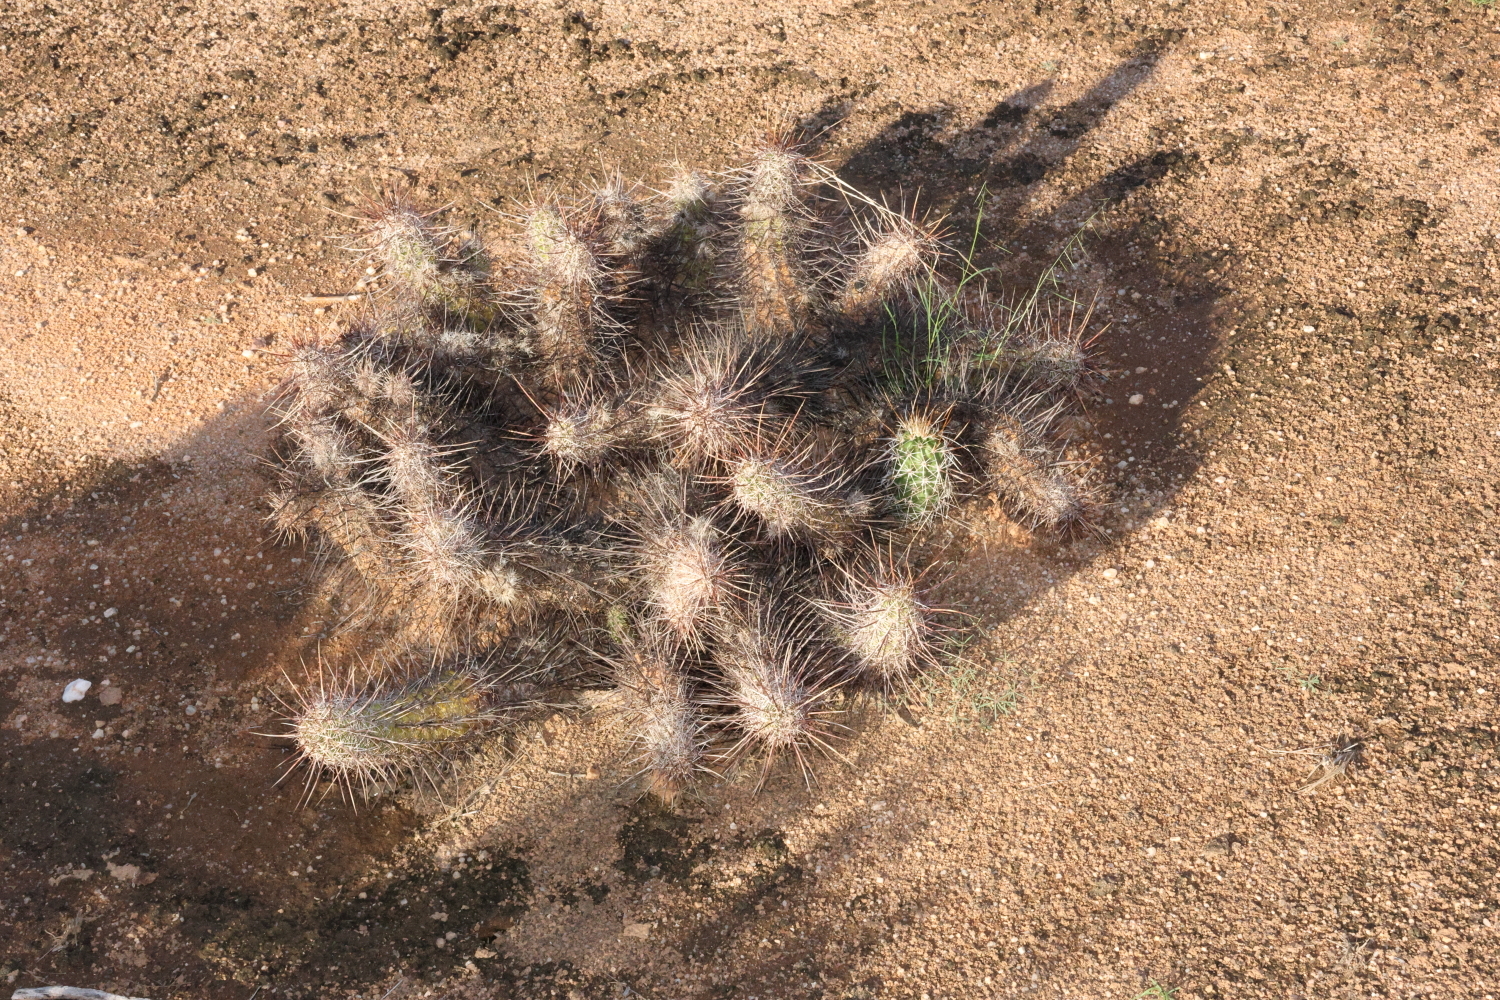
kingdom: Plantae
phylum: Tracheophyta
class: Magnoliopsida
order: Caryophyllales
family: Cactaceae
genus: Echinocereus
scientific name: Echinocereus fasciculatus
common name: Bundle hedgehog
